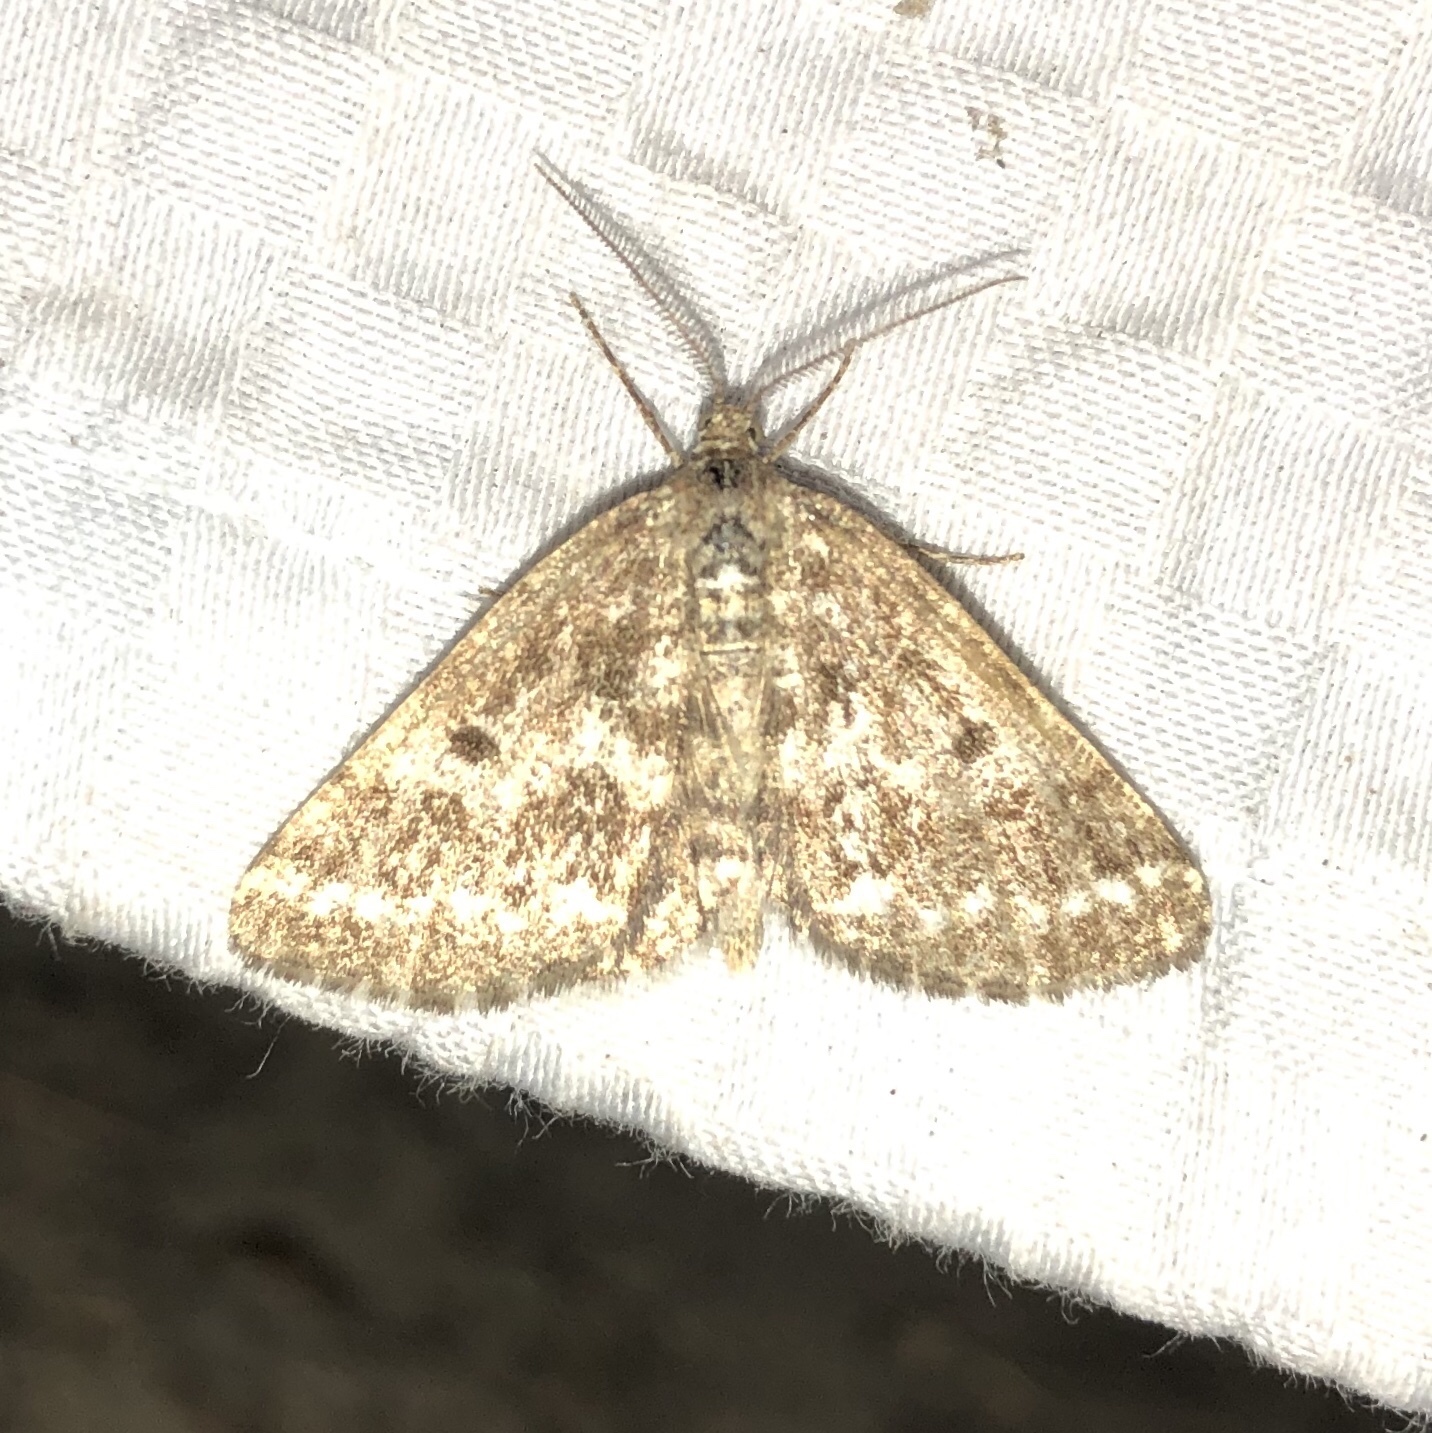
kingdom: Animalia
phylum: Arthropoda
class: Insecta
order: Lepidoptera
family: Geometridae
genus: Eufidonia
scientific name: Eufidonia notataria
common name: Powder moth
